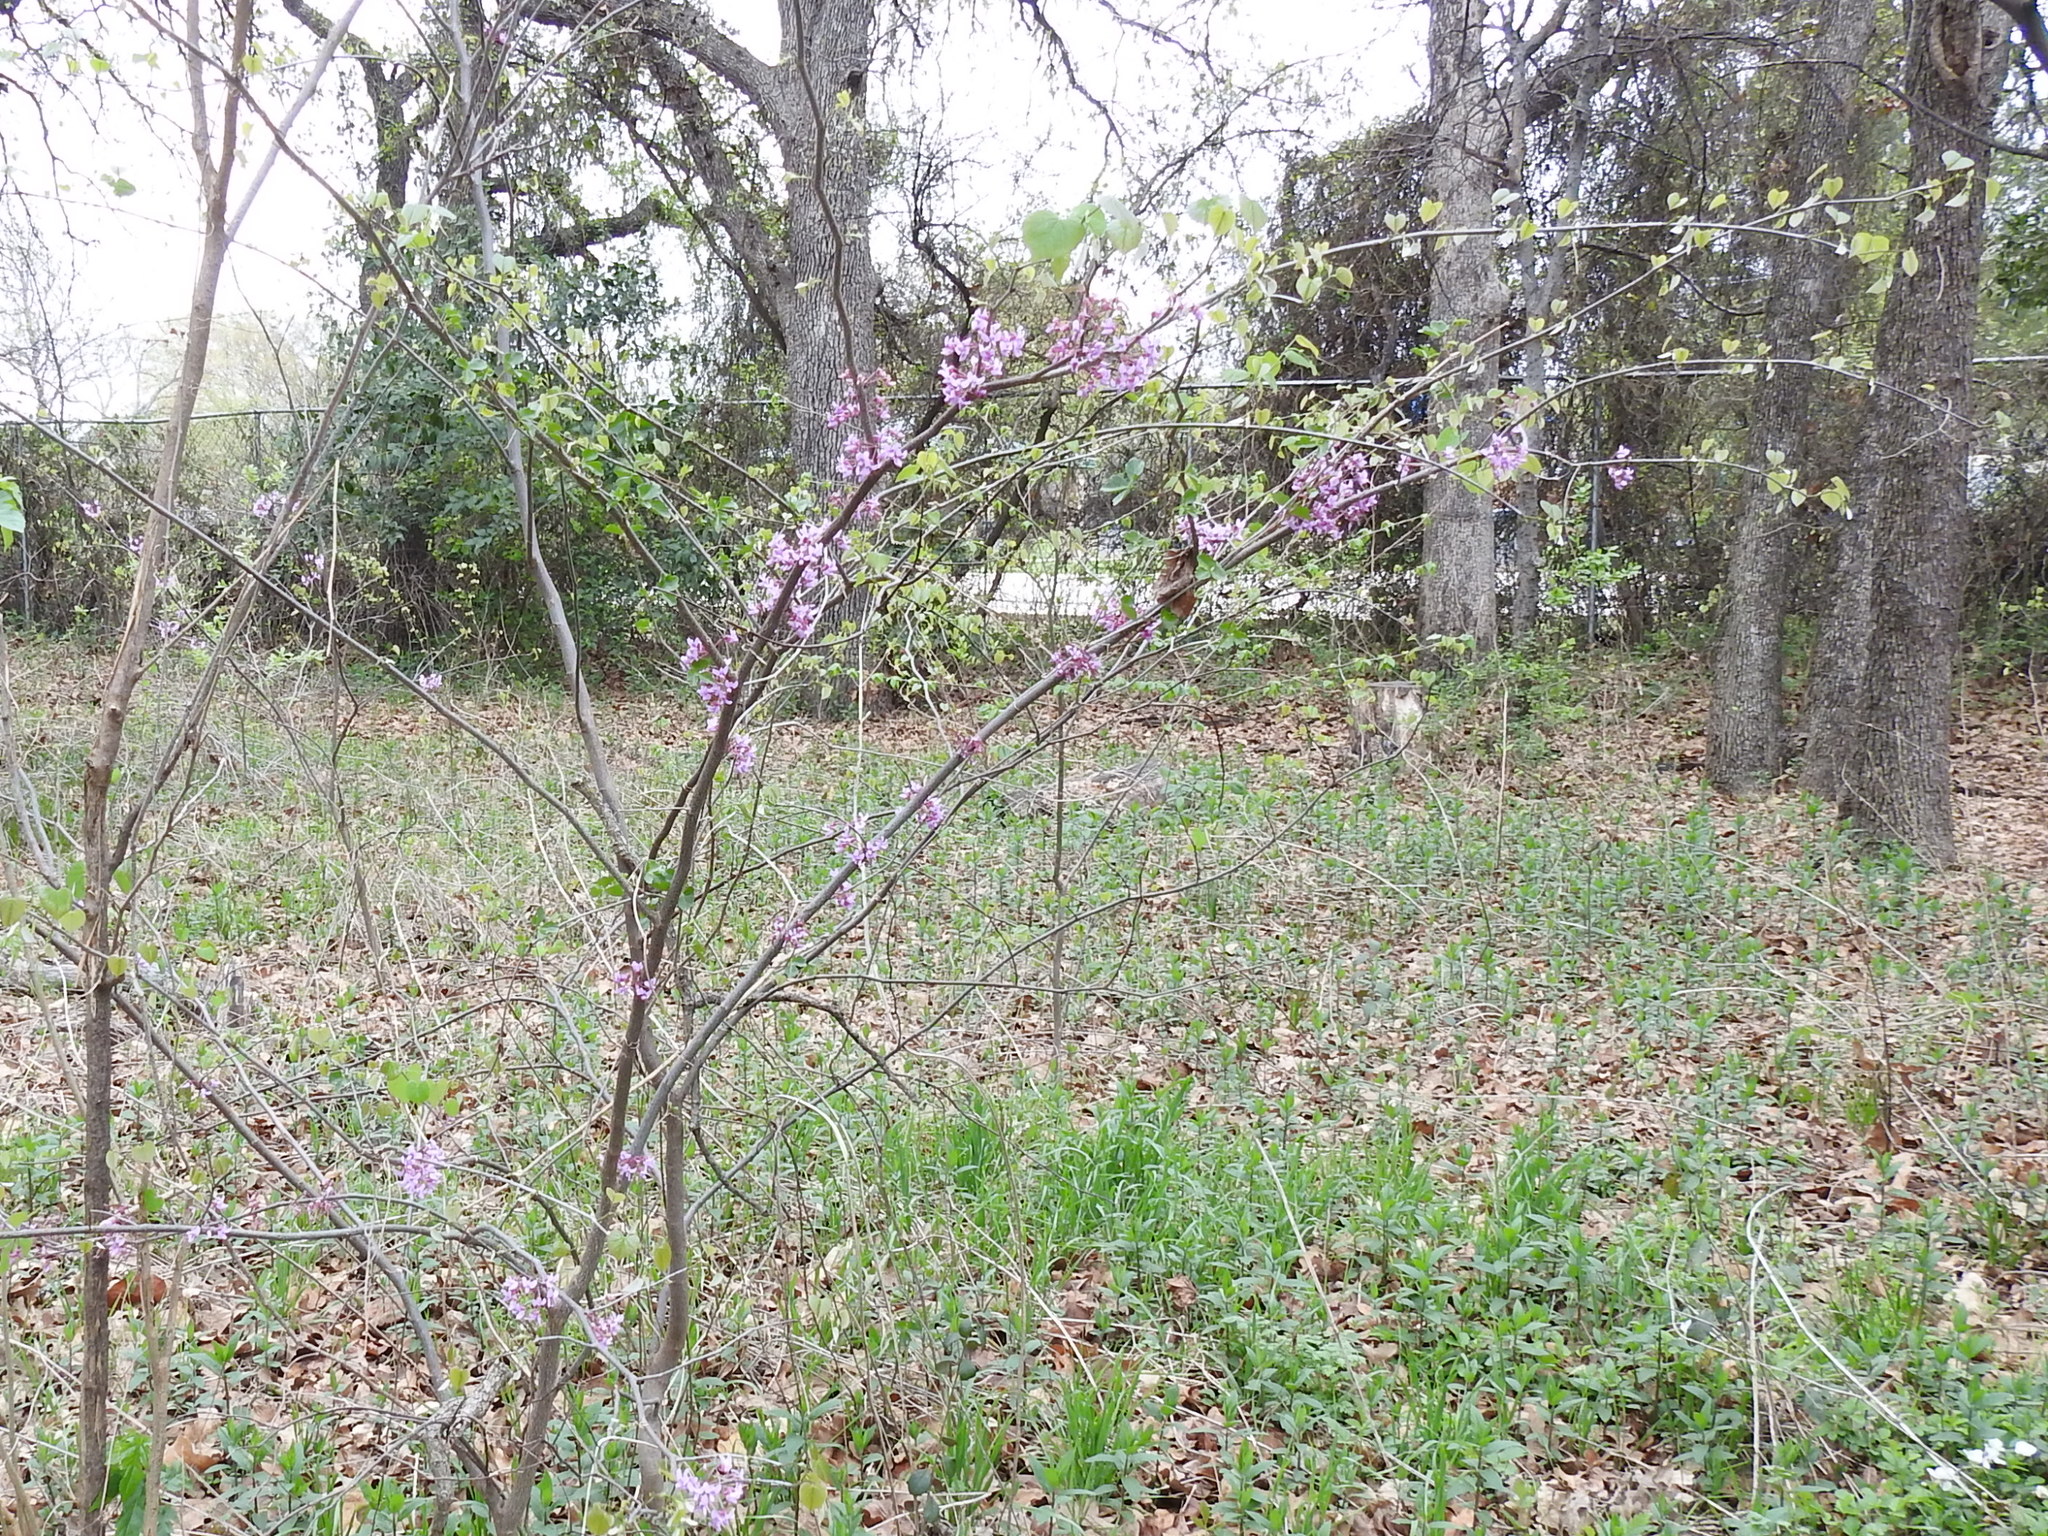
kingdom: Plantae
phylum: Tracheophyta
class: Magnoliopsida
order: Fabales
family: Fabaceae
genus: Cercis
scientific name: Cercis canadensis
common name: Eastern redbud
